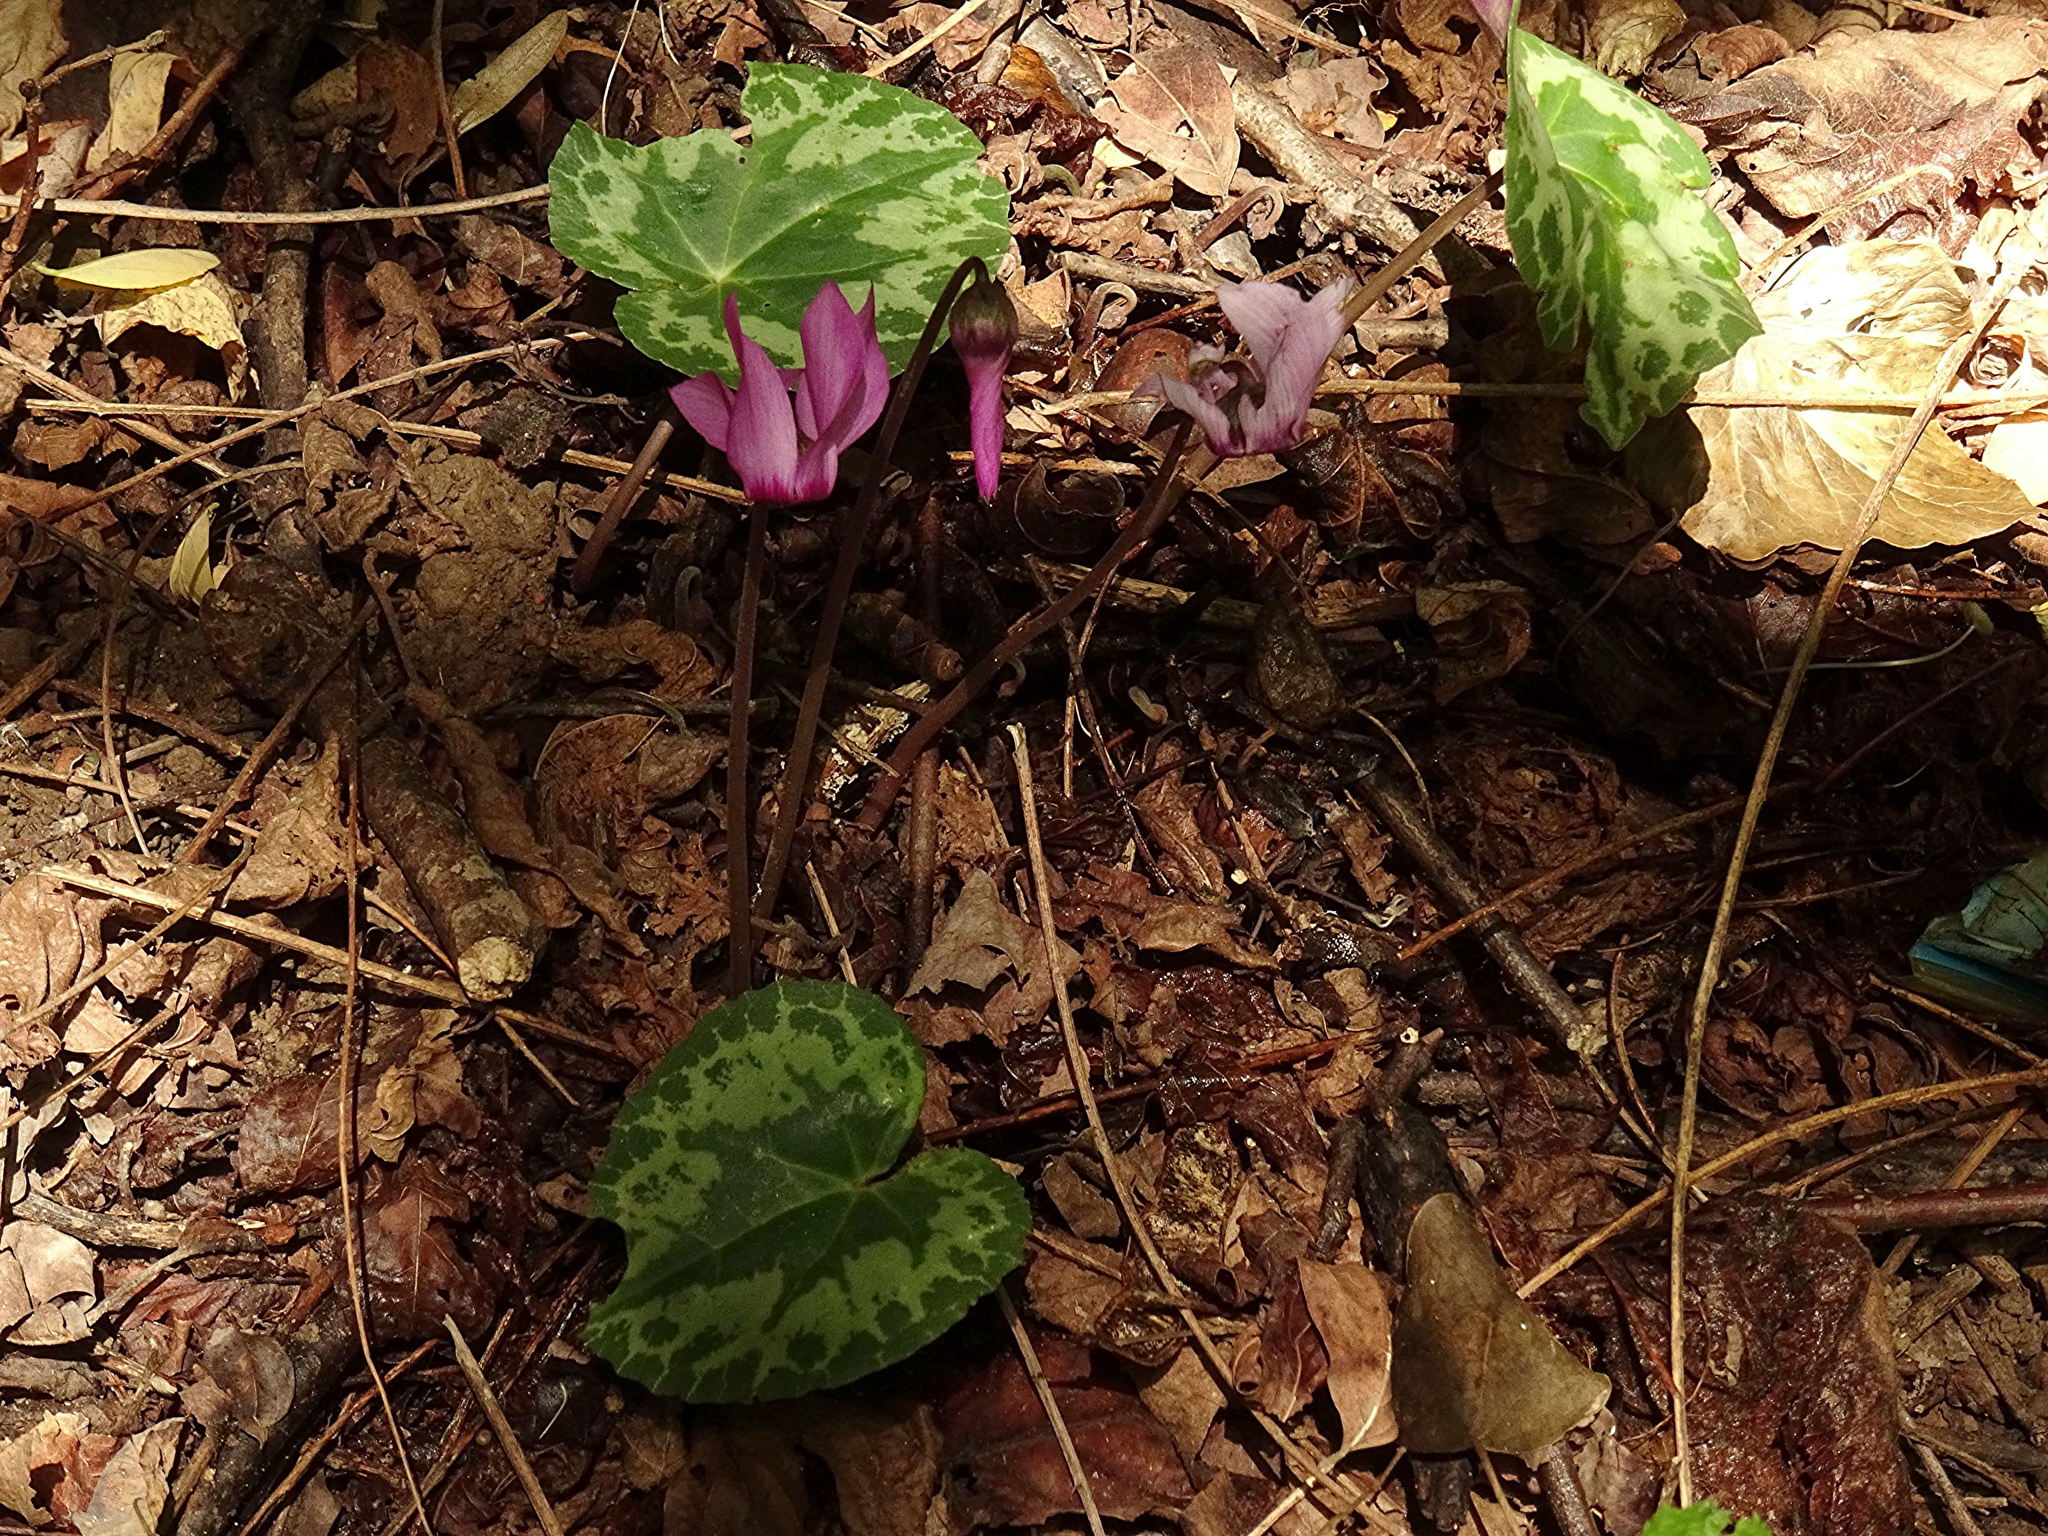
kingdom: Plantae
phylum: Tracheophyta
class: Magnoliopsida
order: Ericales
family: Primulaceae
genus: Cyclamen
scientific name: Cyclamen purpurascens
